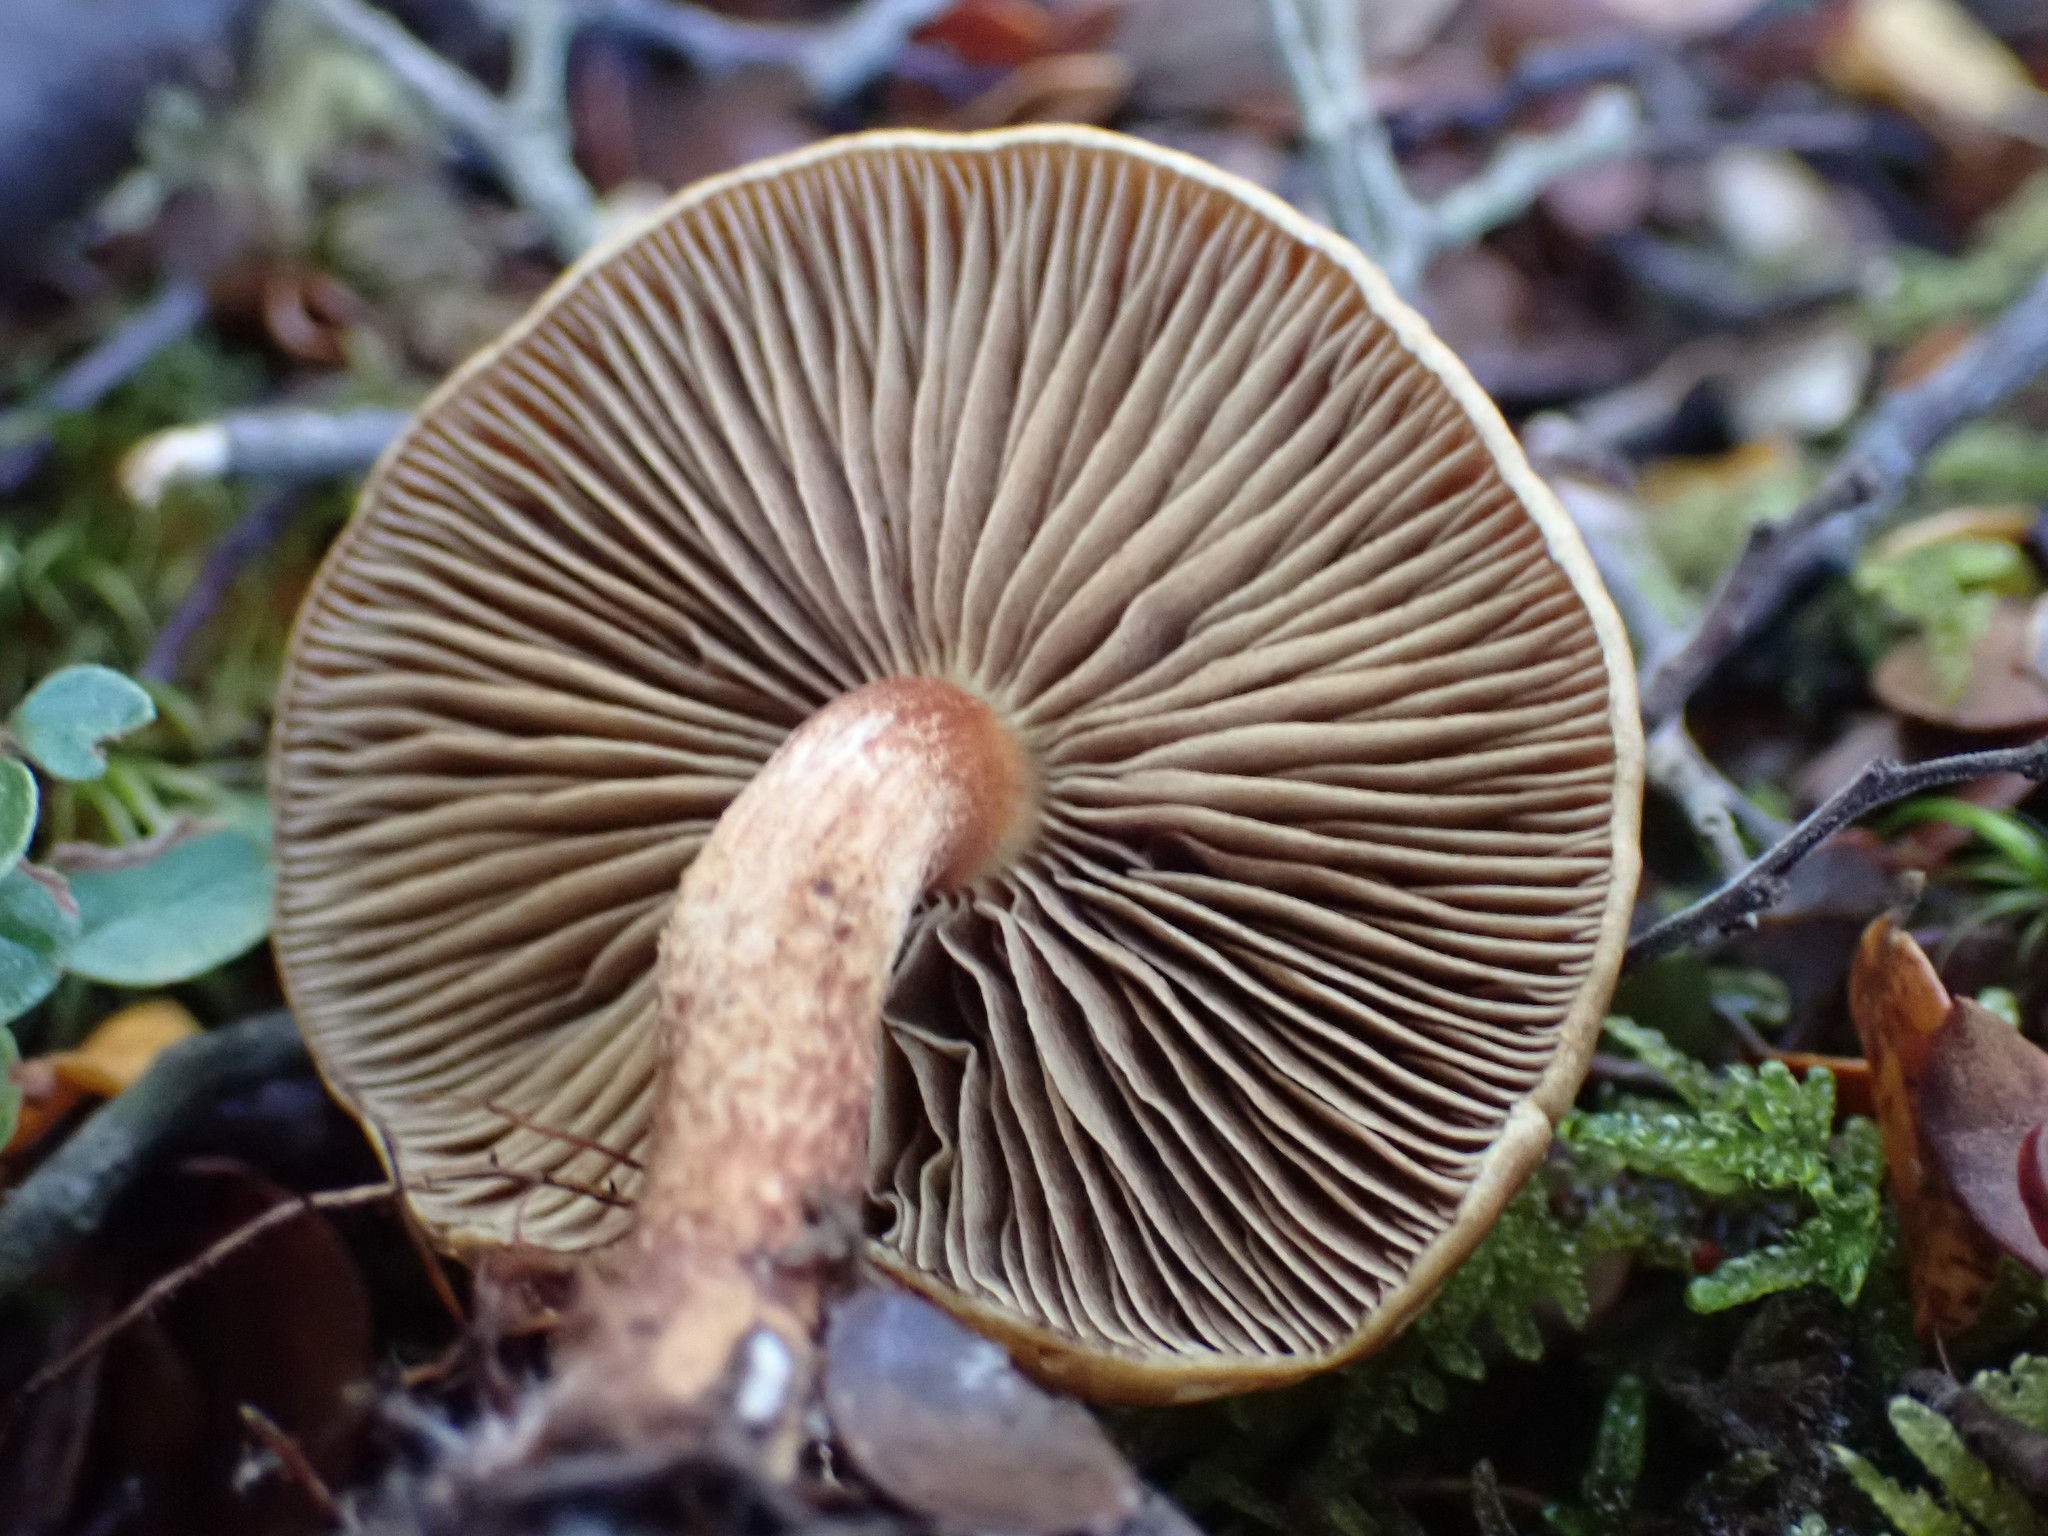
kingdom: Fungi
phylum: Basidiomycota
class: Agaricomycetes
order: Agaricales
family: Strophariaceae
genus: Pholiota
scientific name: Pholiota multicingulata
